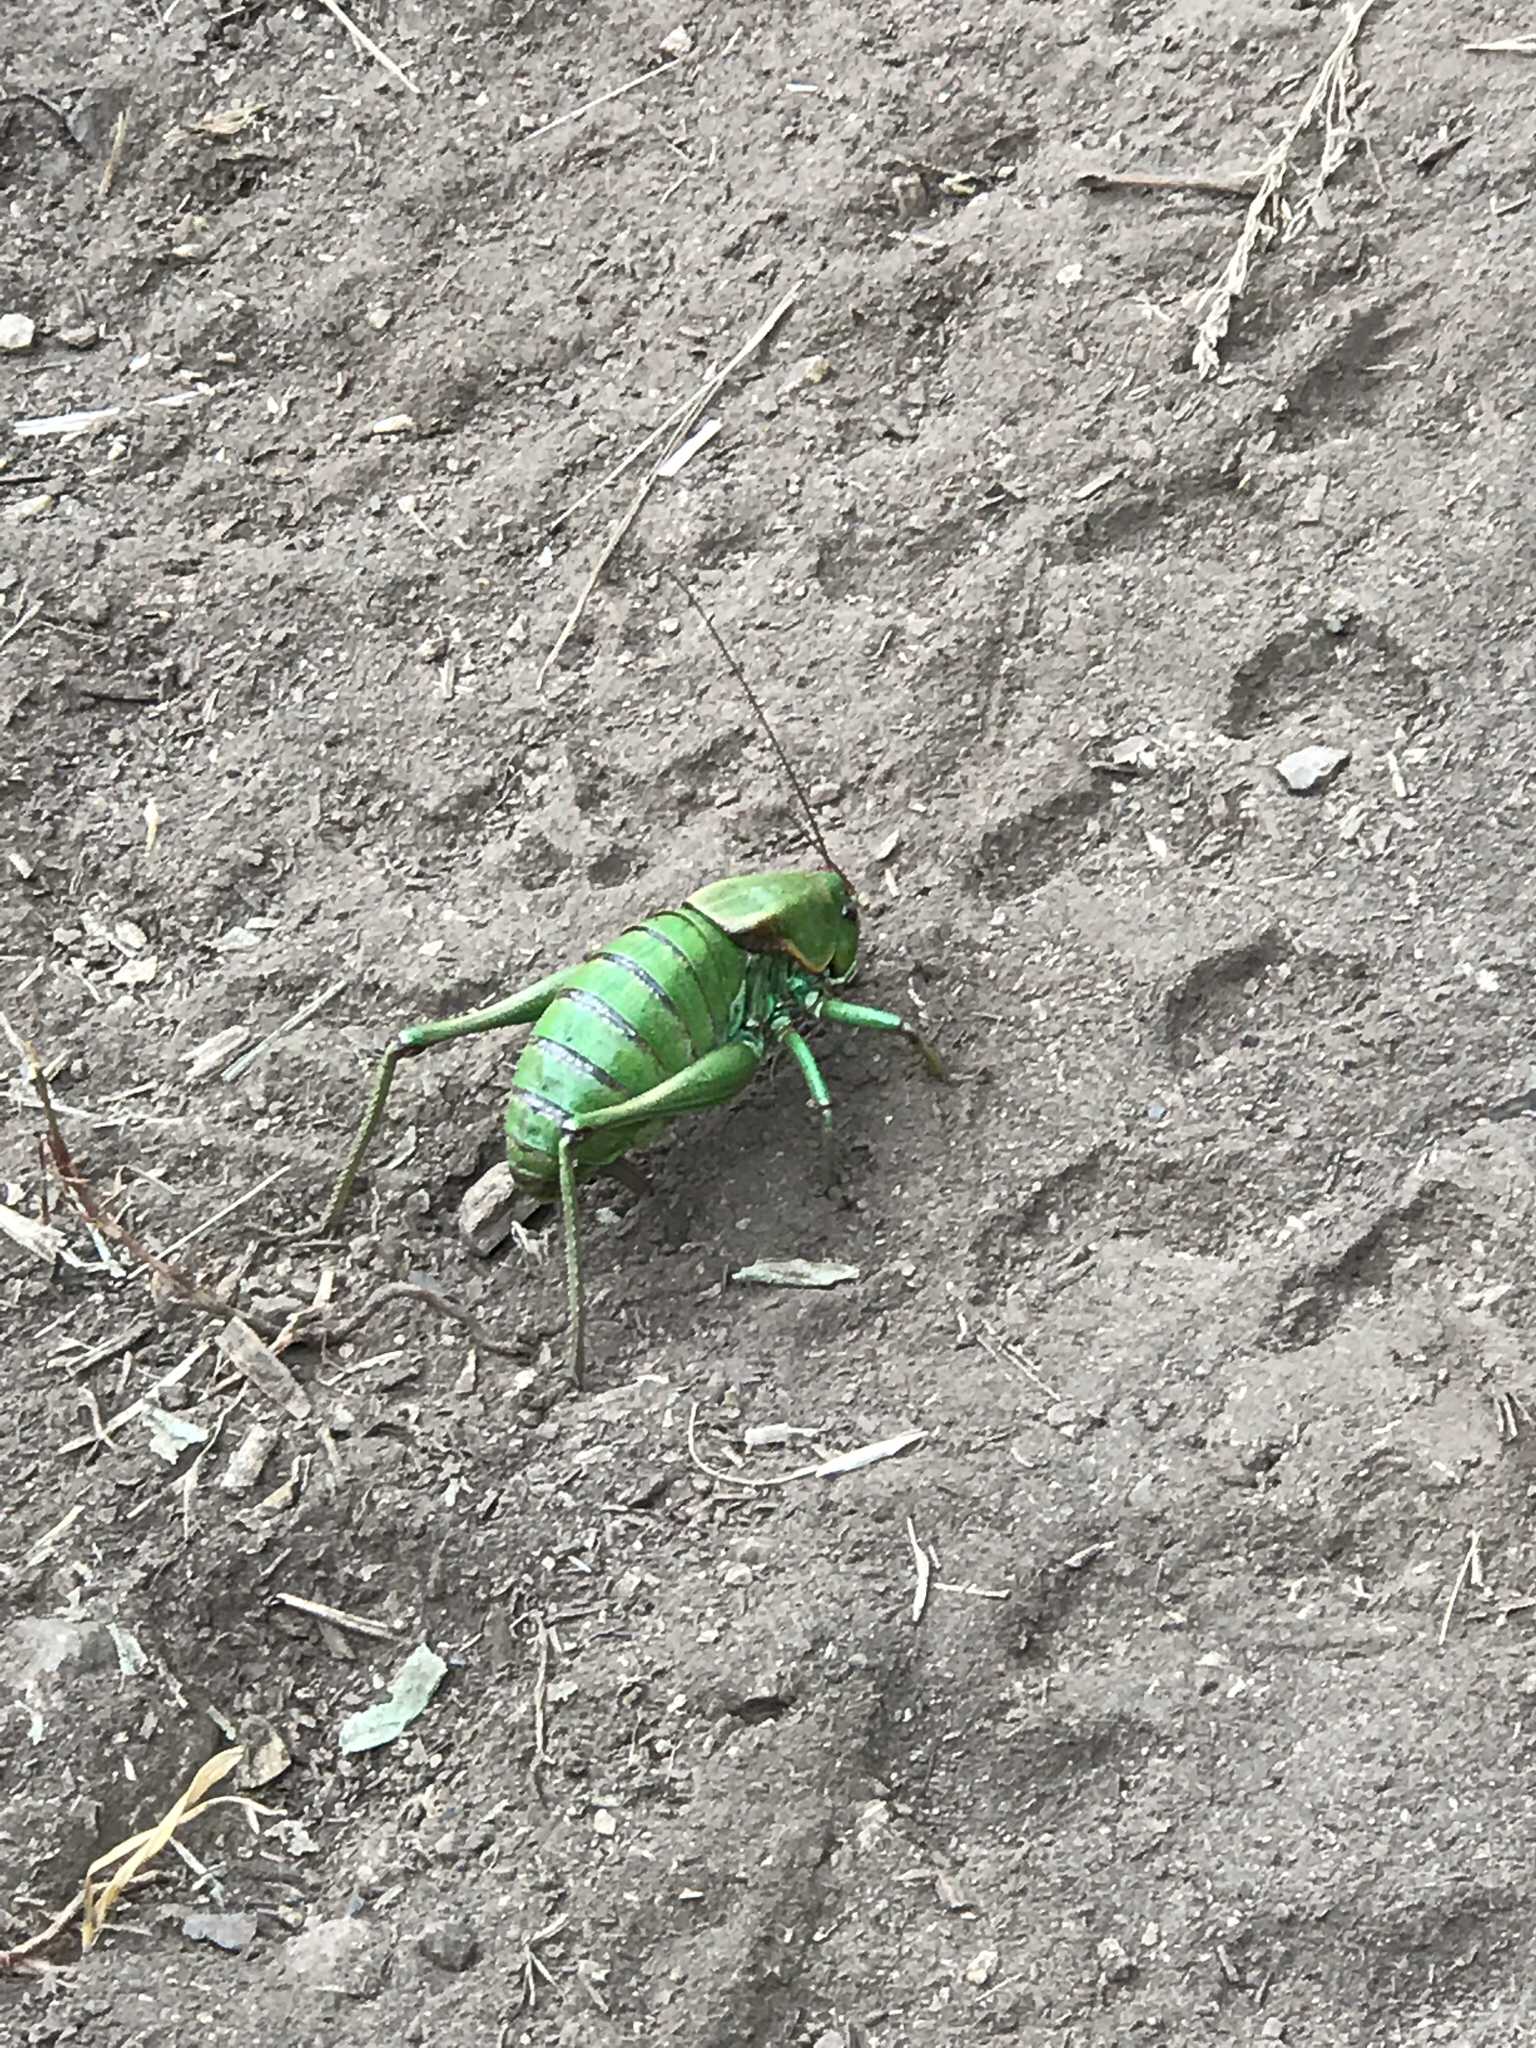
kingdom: Animalia
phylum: Arthropoda
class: Insecta
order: Orthoptera
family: Tettigoniidae
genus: Anabrus
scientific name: Anabrus simplex
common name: Mormon cricket
